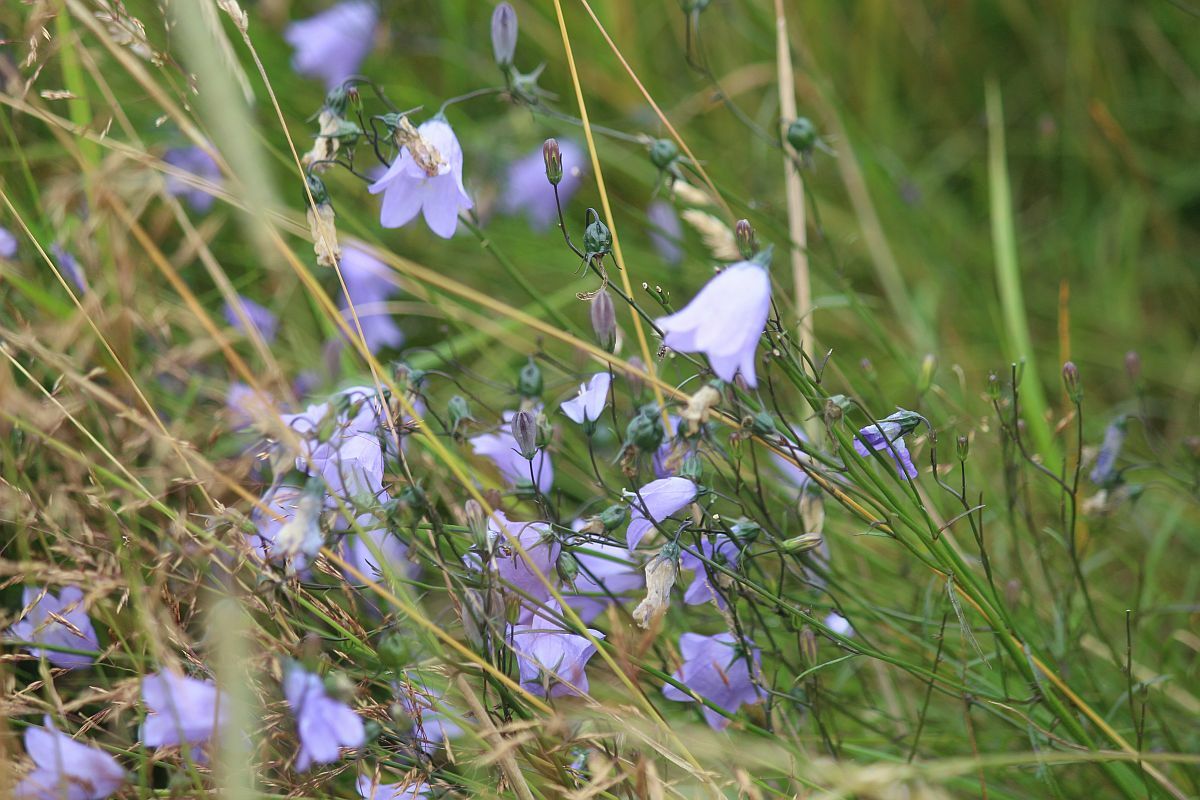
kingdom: Plantae
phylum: Tracheophyta
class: Magnoliopsida
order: Asterales
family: Campanulaceae
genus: Campanula
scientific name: Campanula rotundifolia
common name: Harebell
